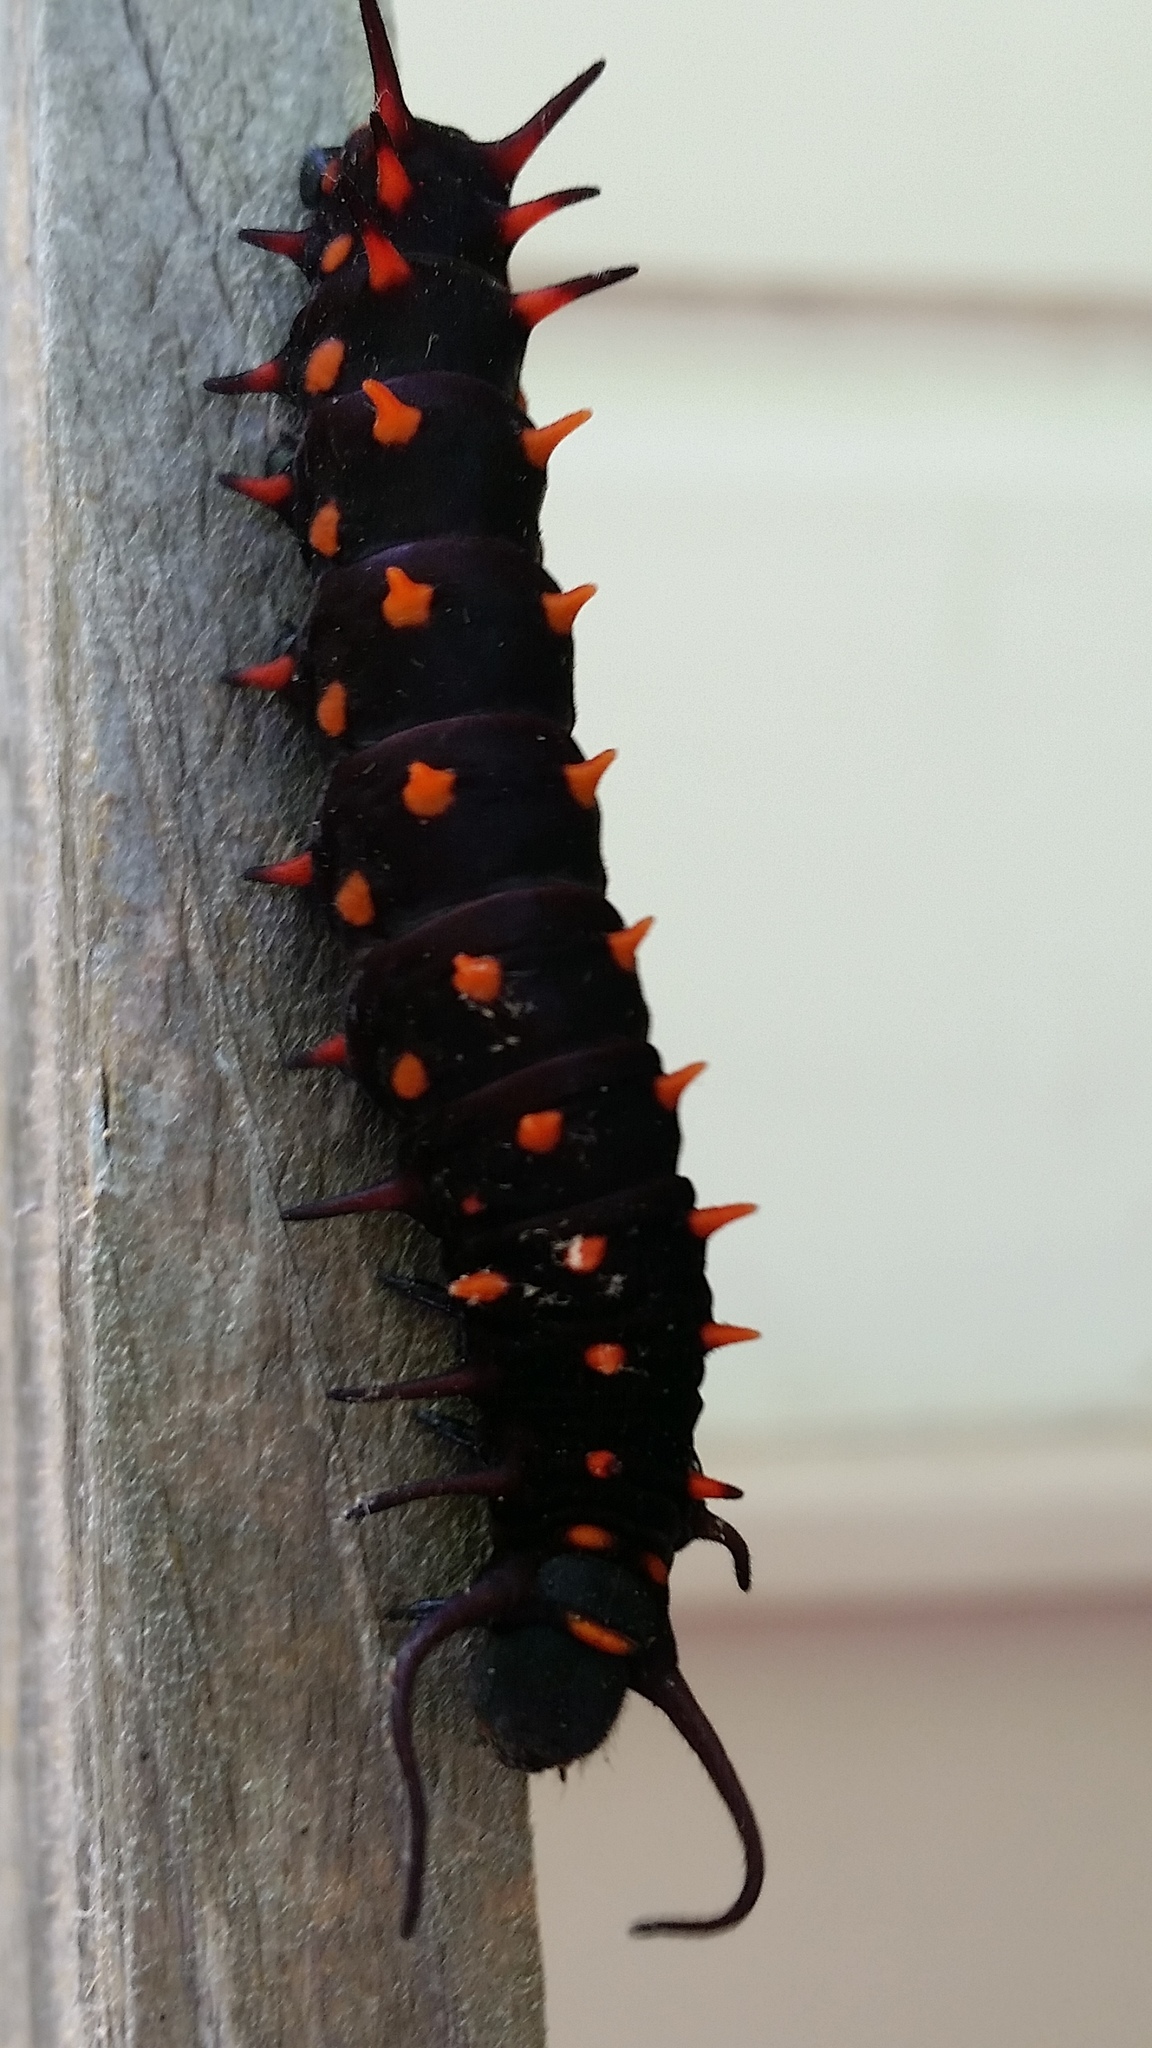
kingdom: Animalia
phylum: Arthropoda
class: Insecta
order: Lepidoptera
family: Papilionidae
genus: Battus
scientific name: Battus philenor
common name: Pipevine swallowtail
